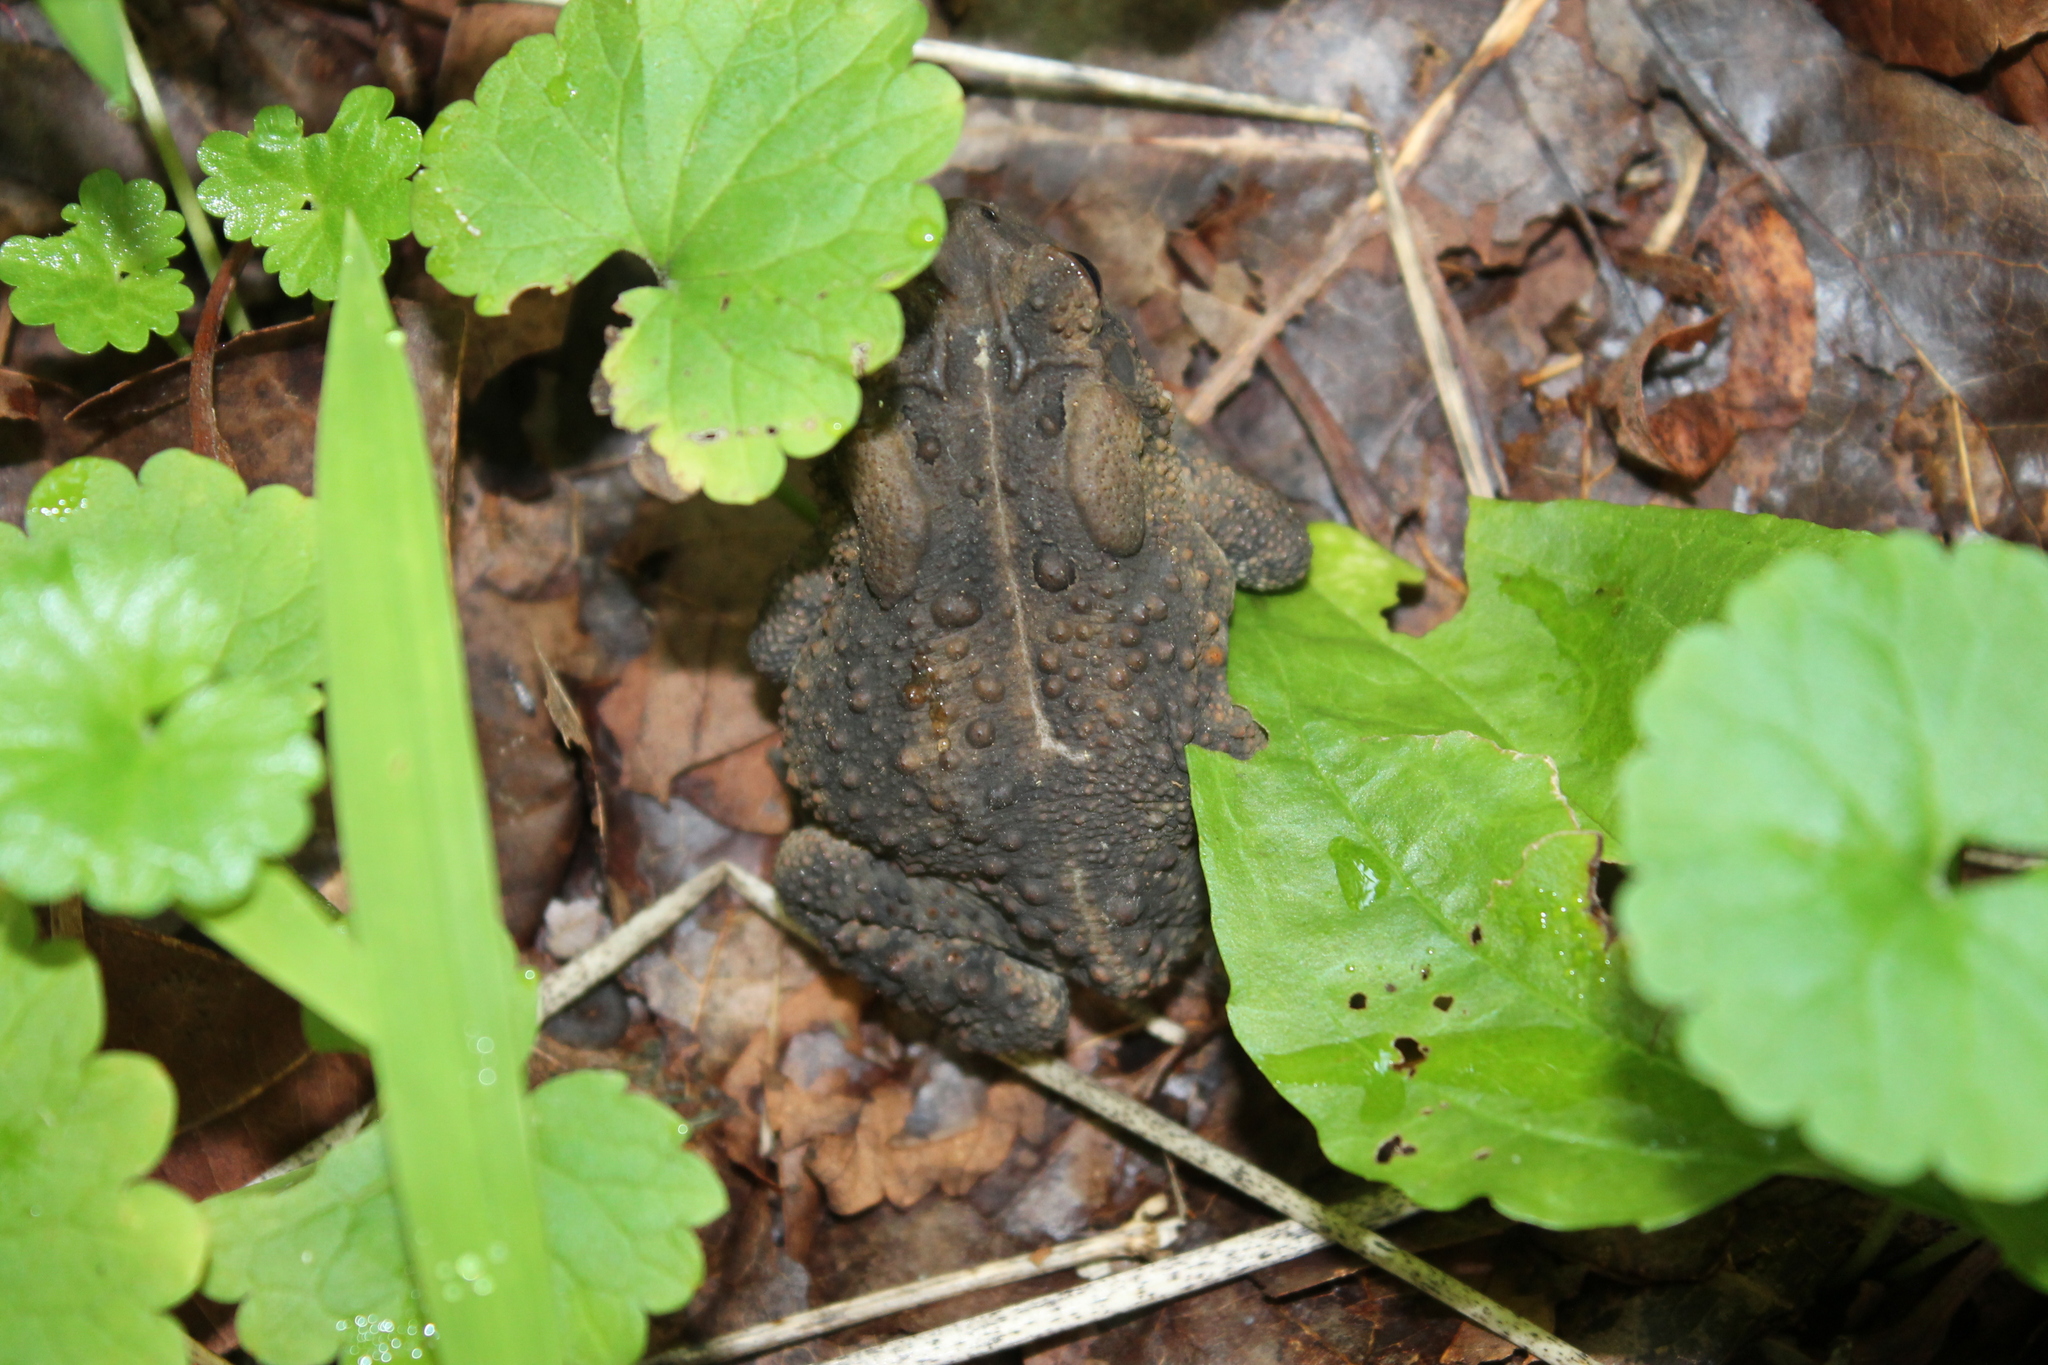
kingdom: Animalia
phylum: Chordata
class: Amphibia
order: Anura
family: Bufonidae
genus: Anaxyrus
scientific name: Anaxyrus americanus
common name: American toad
